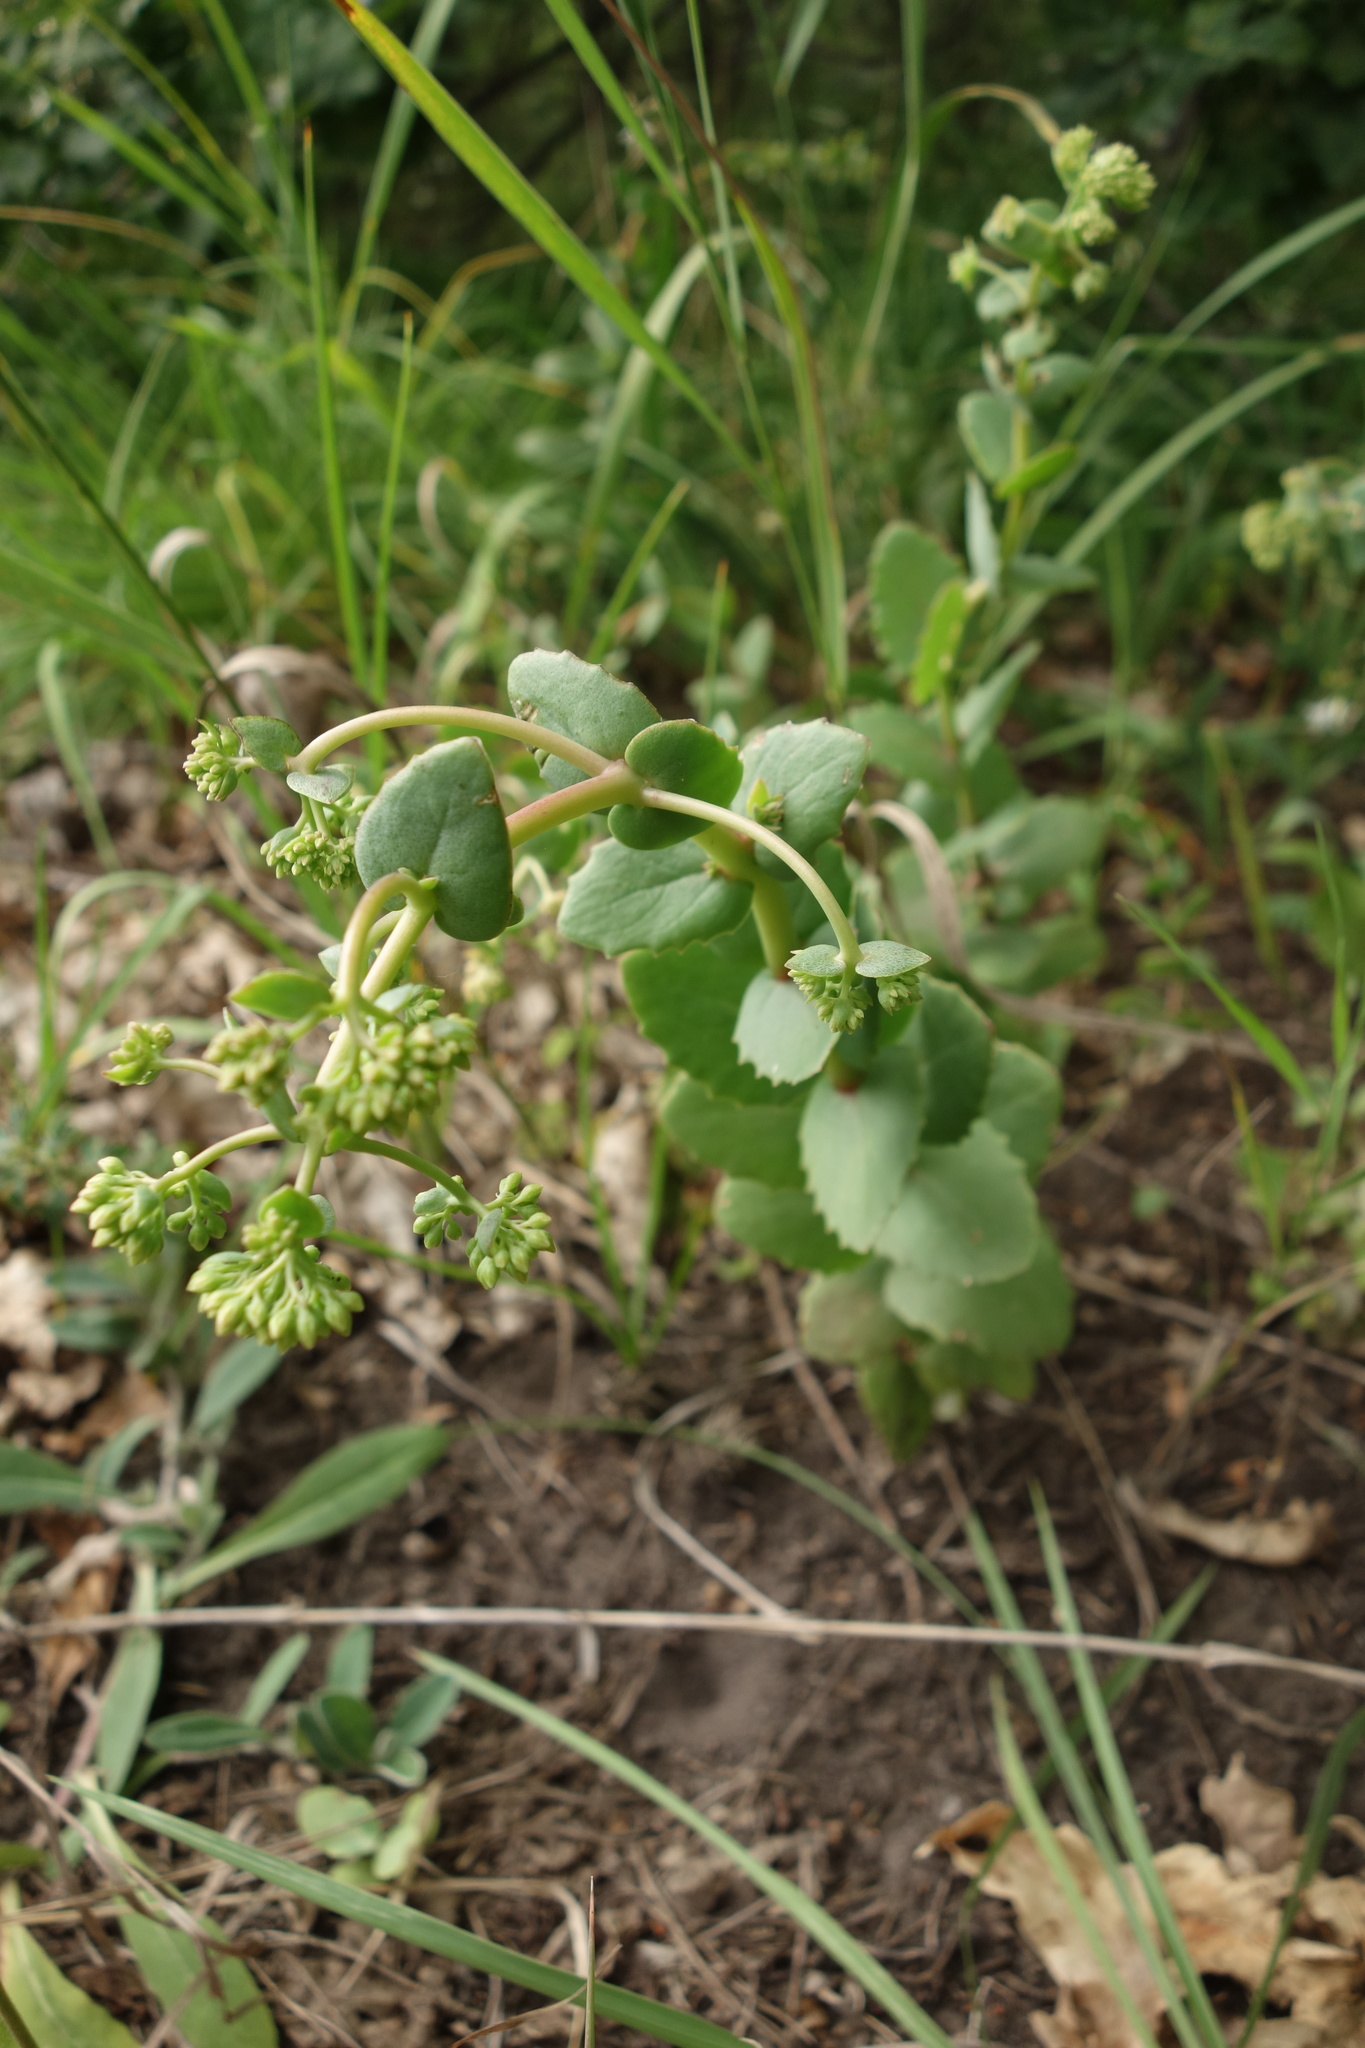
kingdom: Plantae
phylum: Tracheophyta
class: Magnoliopsida
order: Saxifragales
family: Crassulaceae
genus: Hylotelephium
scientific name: Hylotelephium maximum
